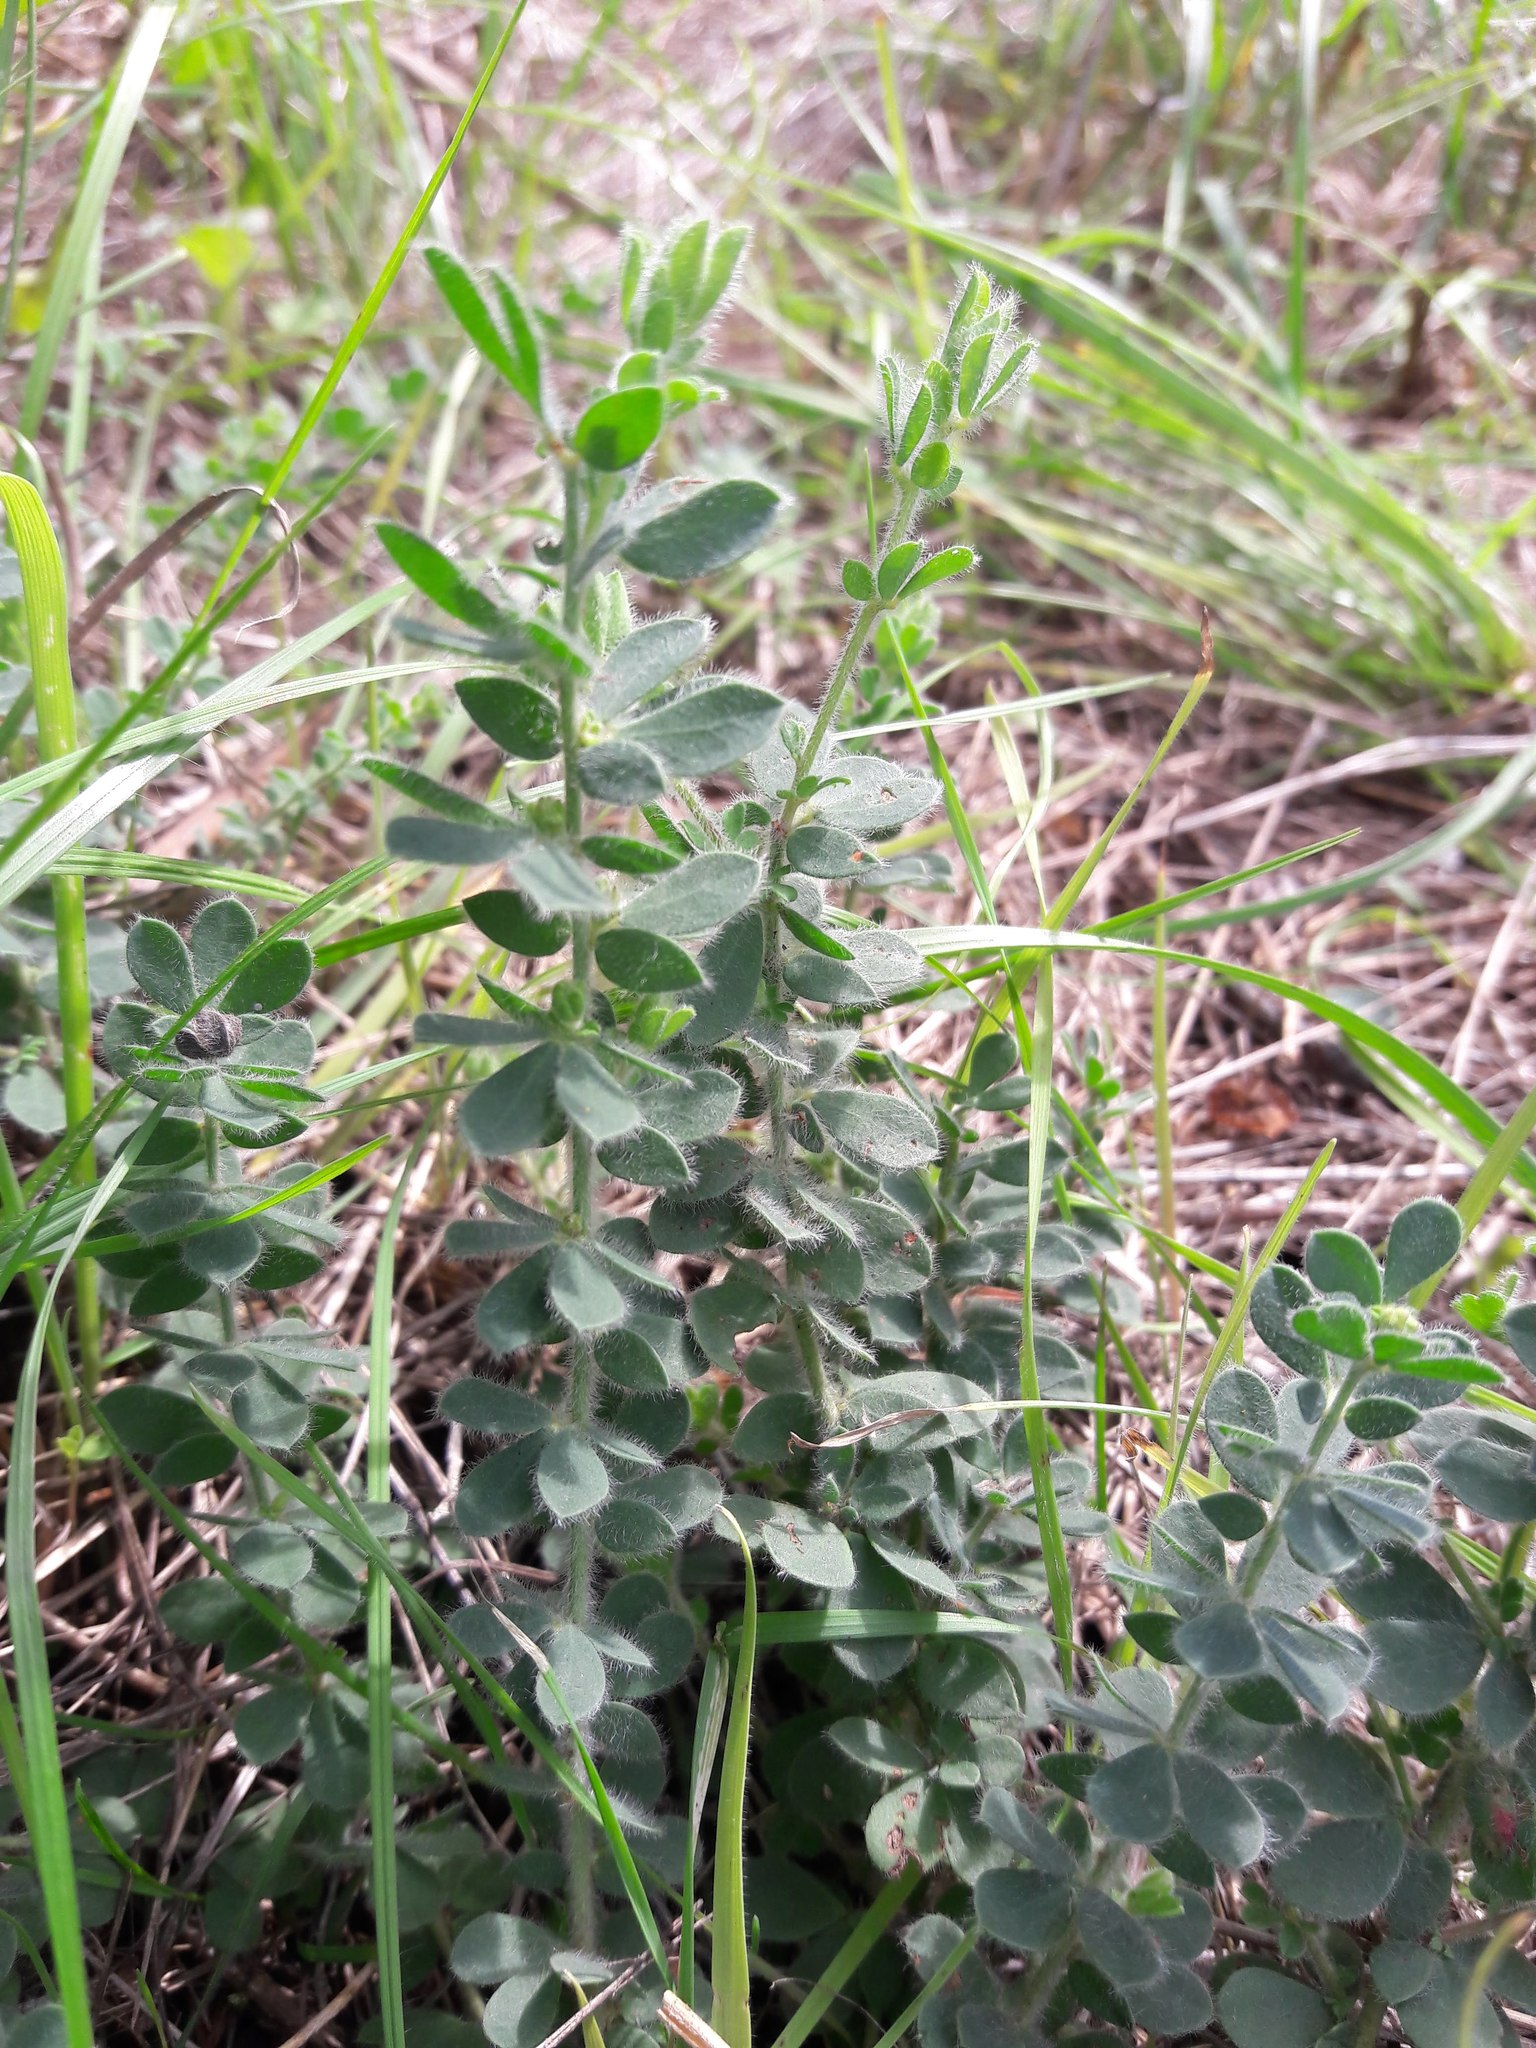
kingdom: Plantae
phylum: Tracheophyta
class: Magnoliopsida
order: Fabales
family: Fabaceae
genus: Lotus
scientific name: Lotus hirsutus
